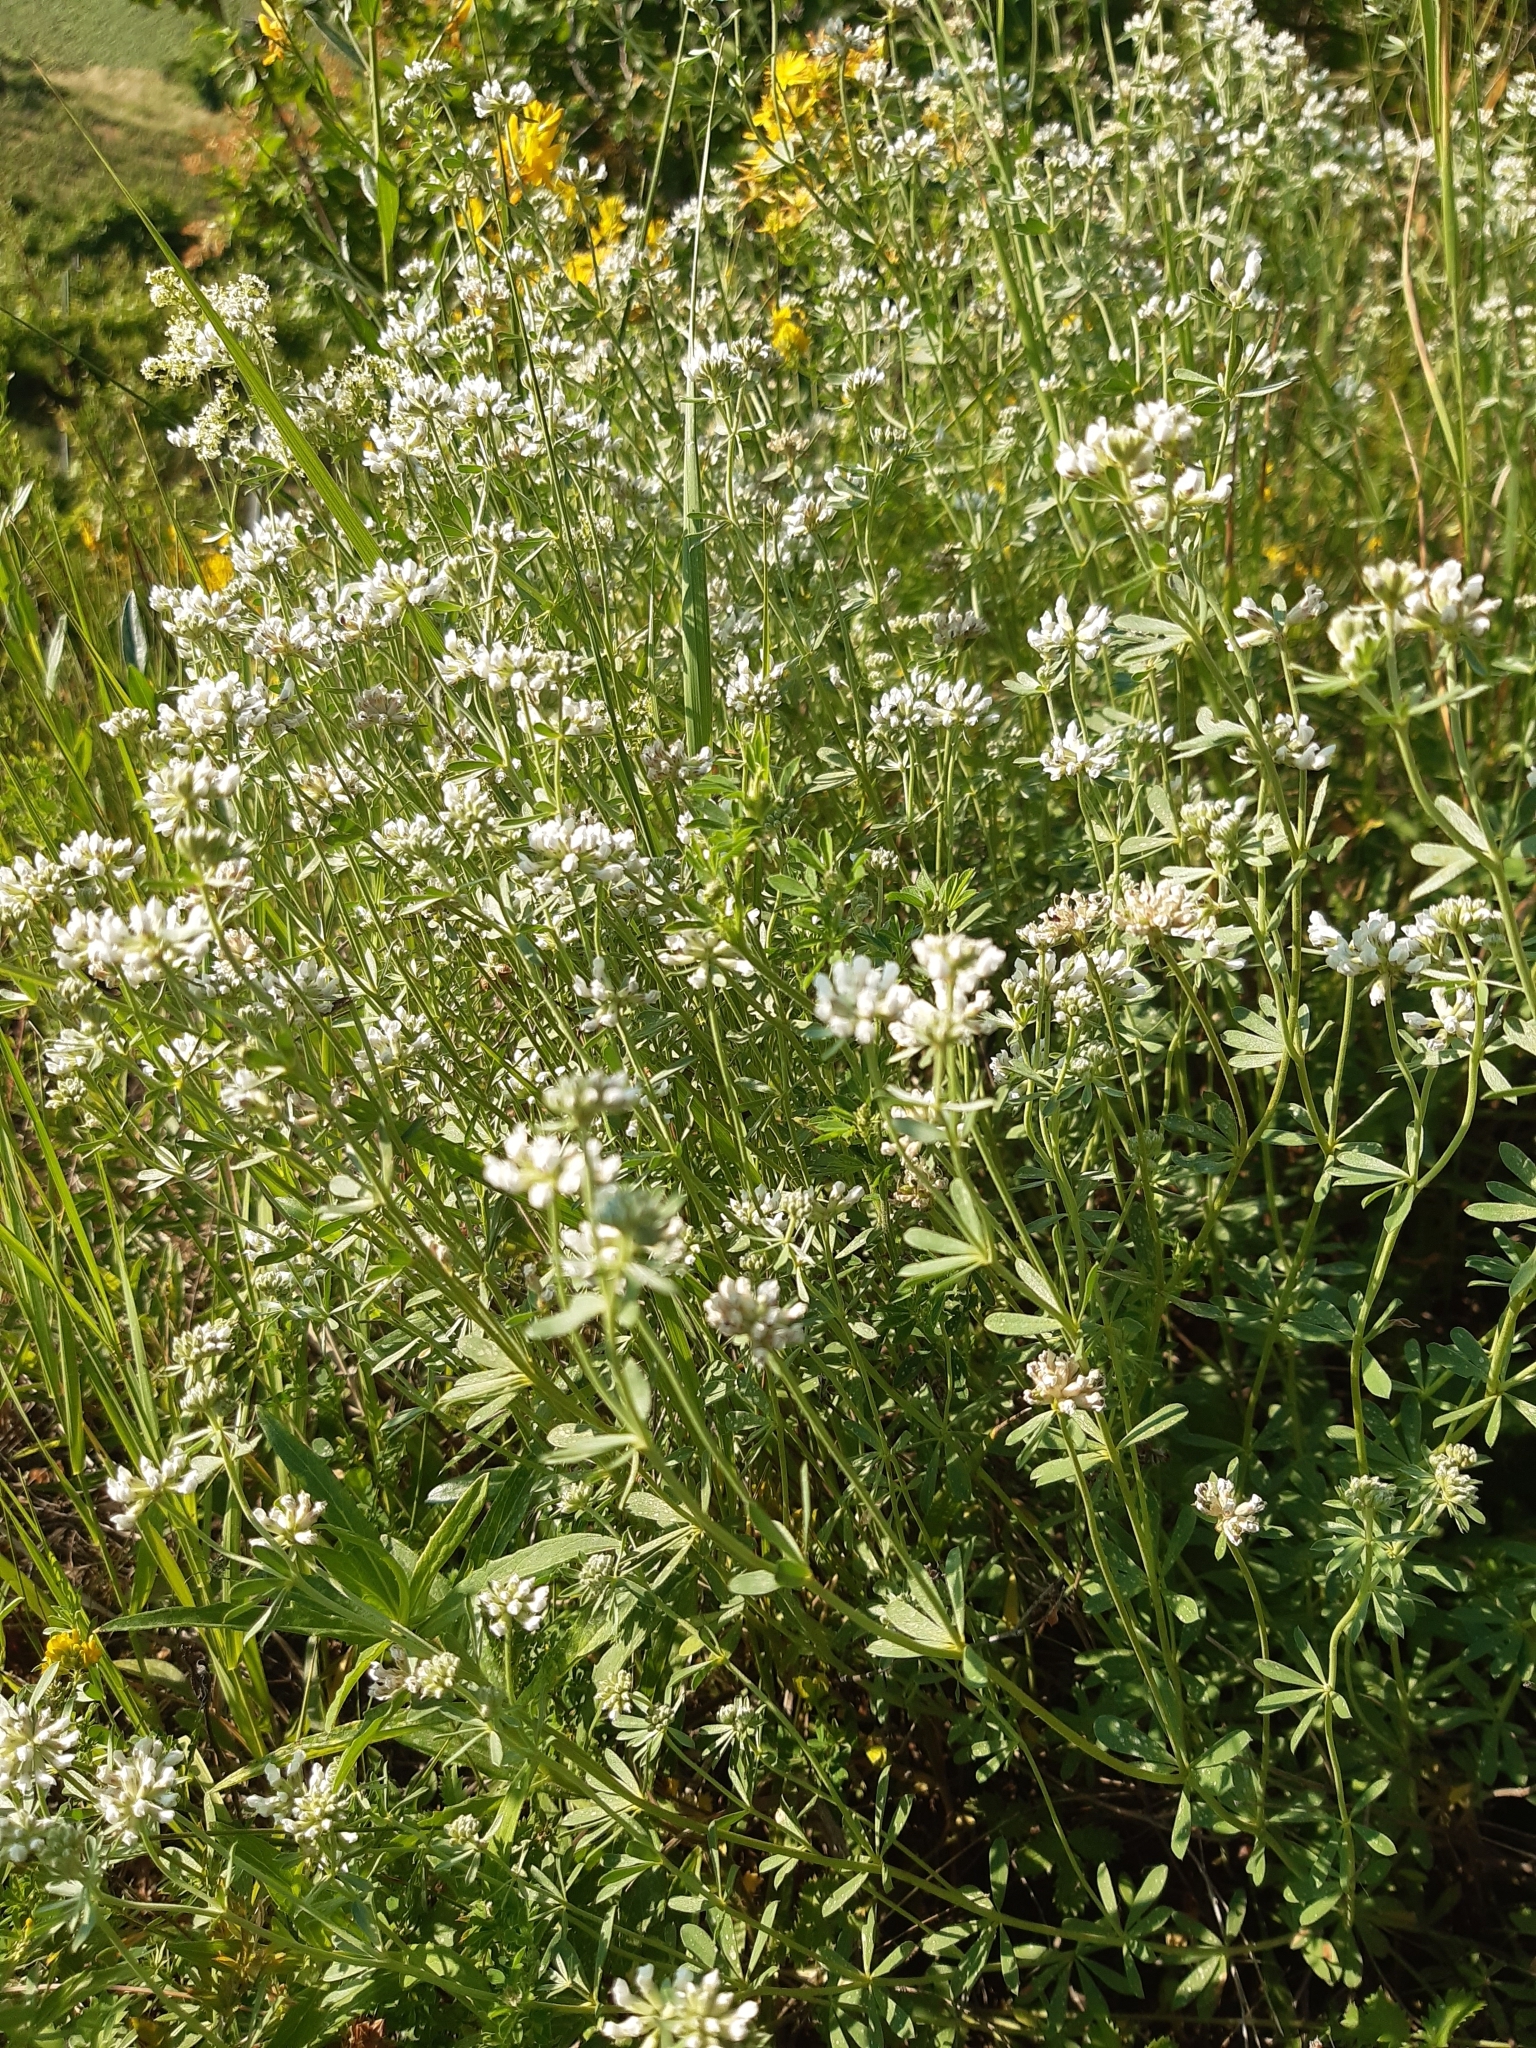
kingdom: Plantae
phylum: Tracheophyta
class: Magnoliopsida
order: Fabales
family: Fabaceae
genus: Lotus
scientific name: Lotus germanicus
